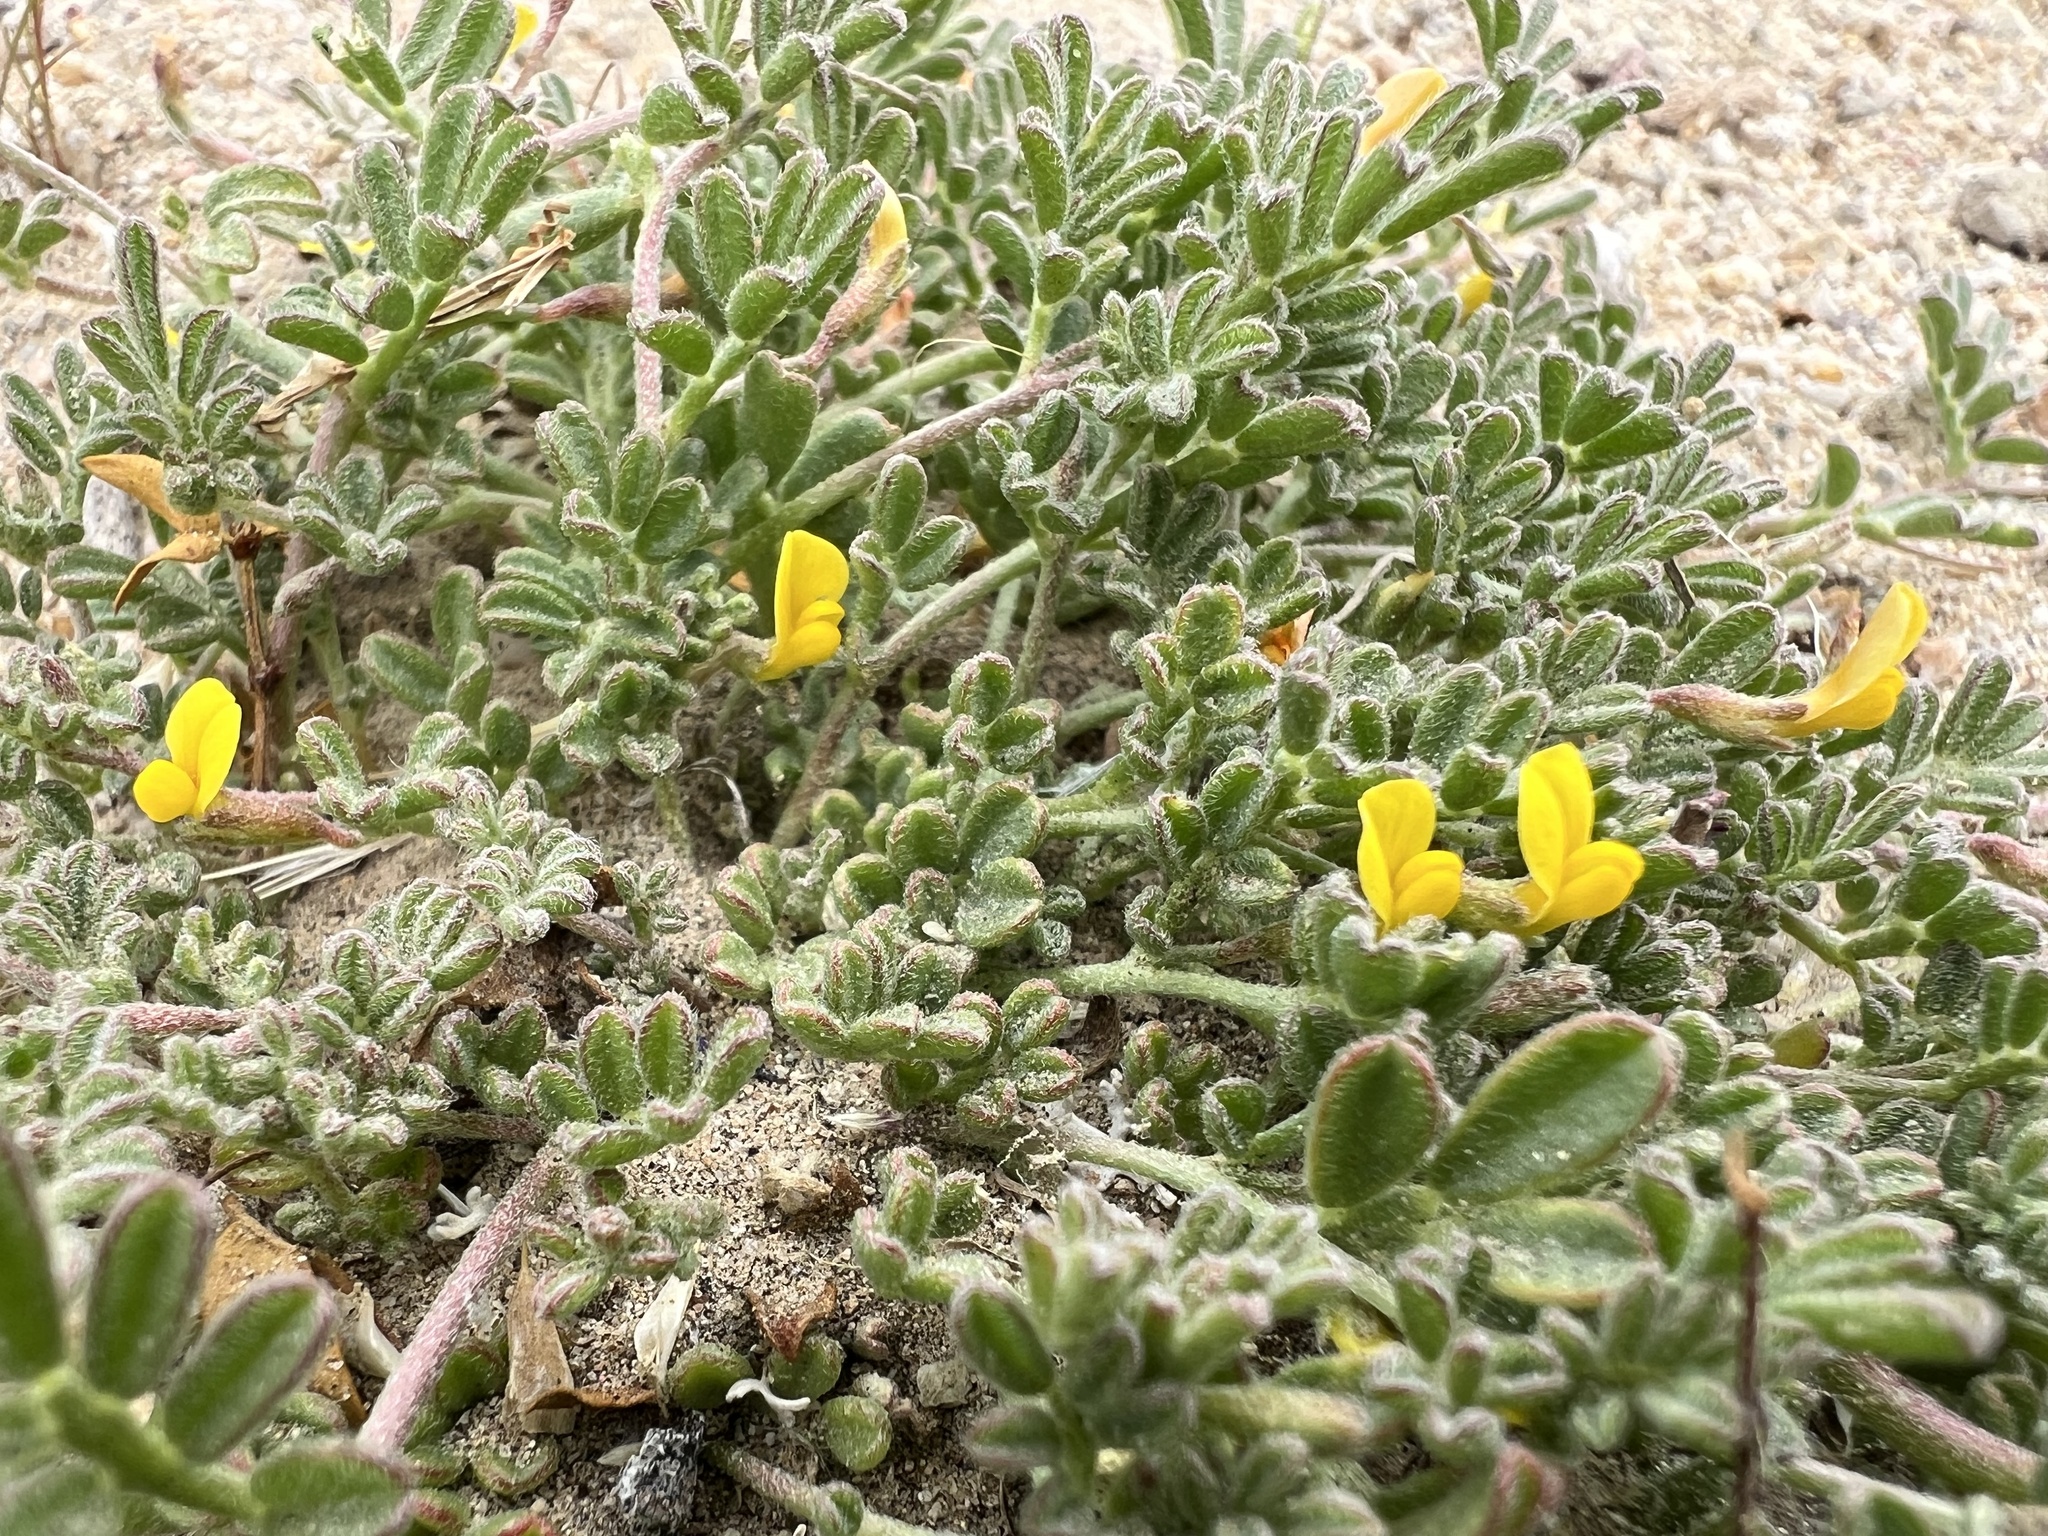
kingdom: Plantae
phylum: Tracheophyta
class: Magnoliopsida
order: Fabales
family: Fabaceae
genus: Acmispon
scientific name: Acmispon strigosus
